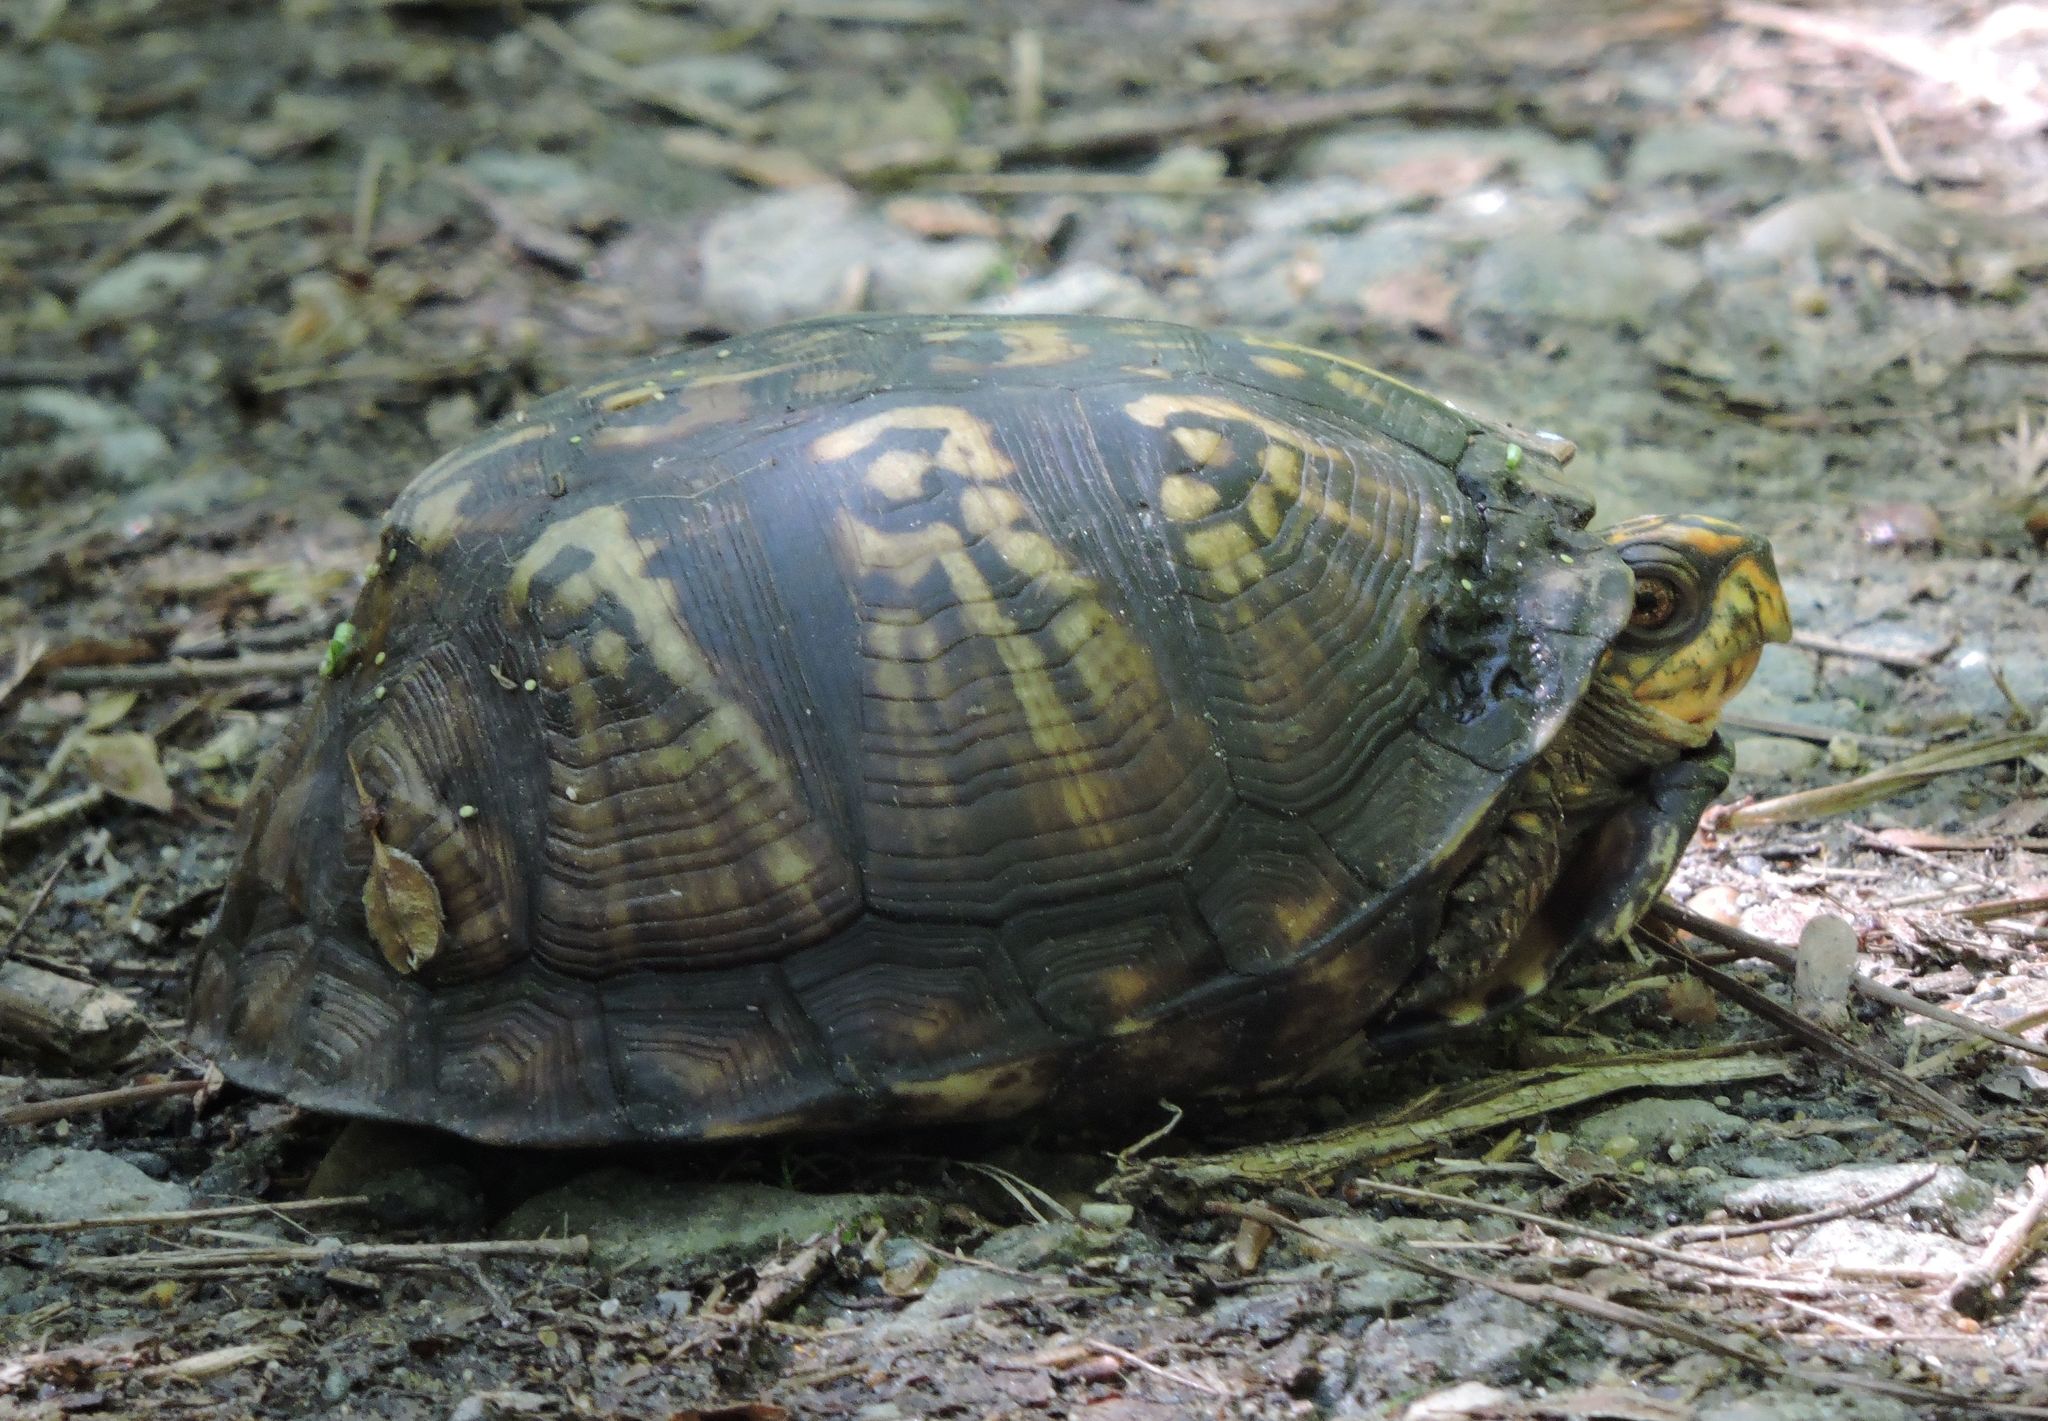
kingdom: Animalia
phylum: Chordata
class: Testudines
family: Emydidae
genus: Terrapene
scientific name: Terrapene carolina
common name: Common box turtle
